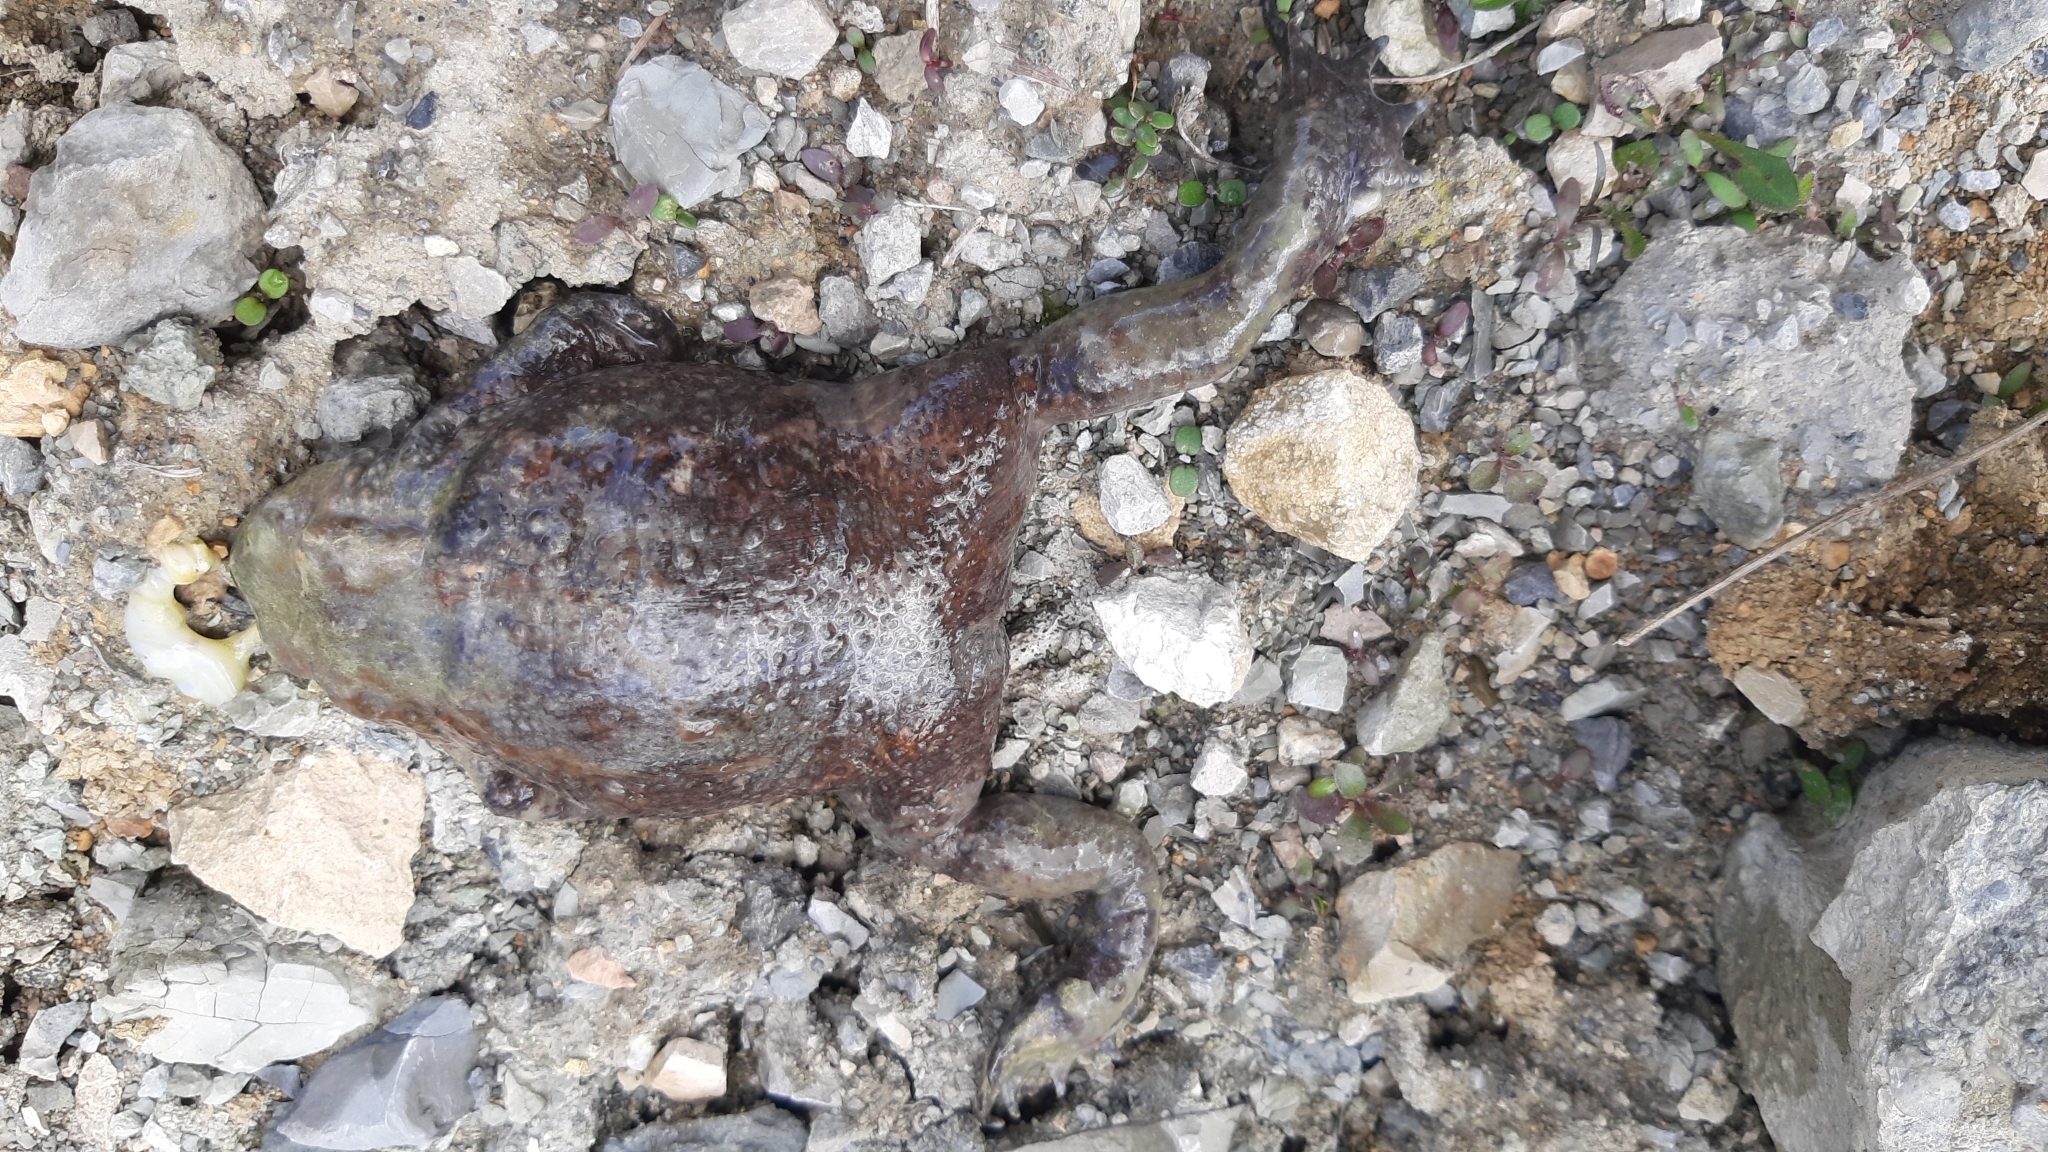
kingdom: Animalia
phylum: Chordata
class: Amphibia
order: Anura
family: Bufonidae
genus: Bufo
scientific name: Bufo bufo
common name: Common toad
